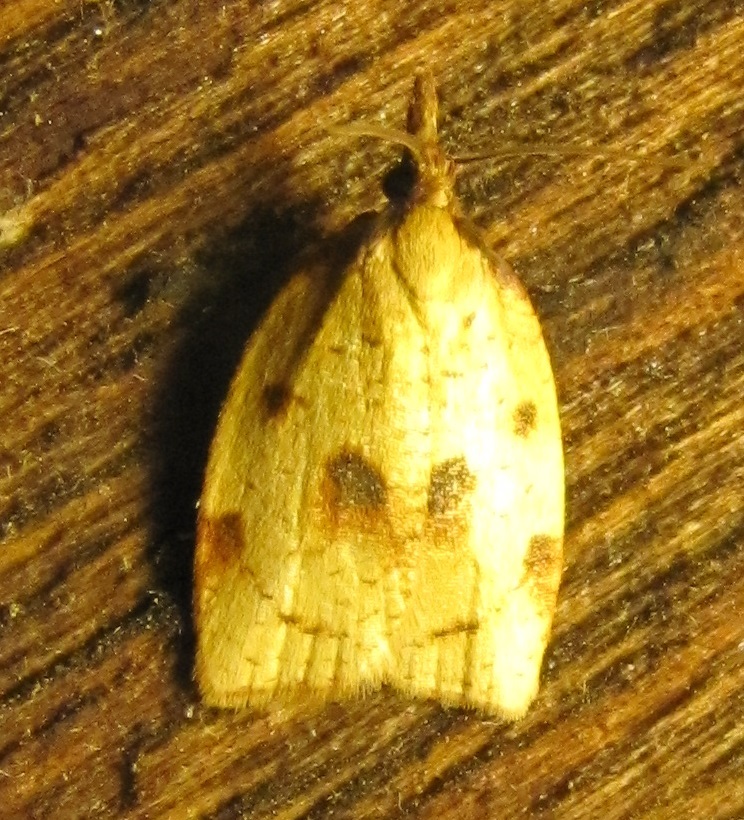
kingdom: Animalia
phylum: Arthropoda
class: Insecta
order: Lepidoptera
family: Tortricidae
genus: Sparganothis
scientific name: Sparganothis xanthoides
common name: Mosaic sparganothis moth
